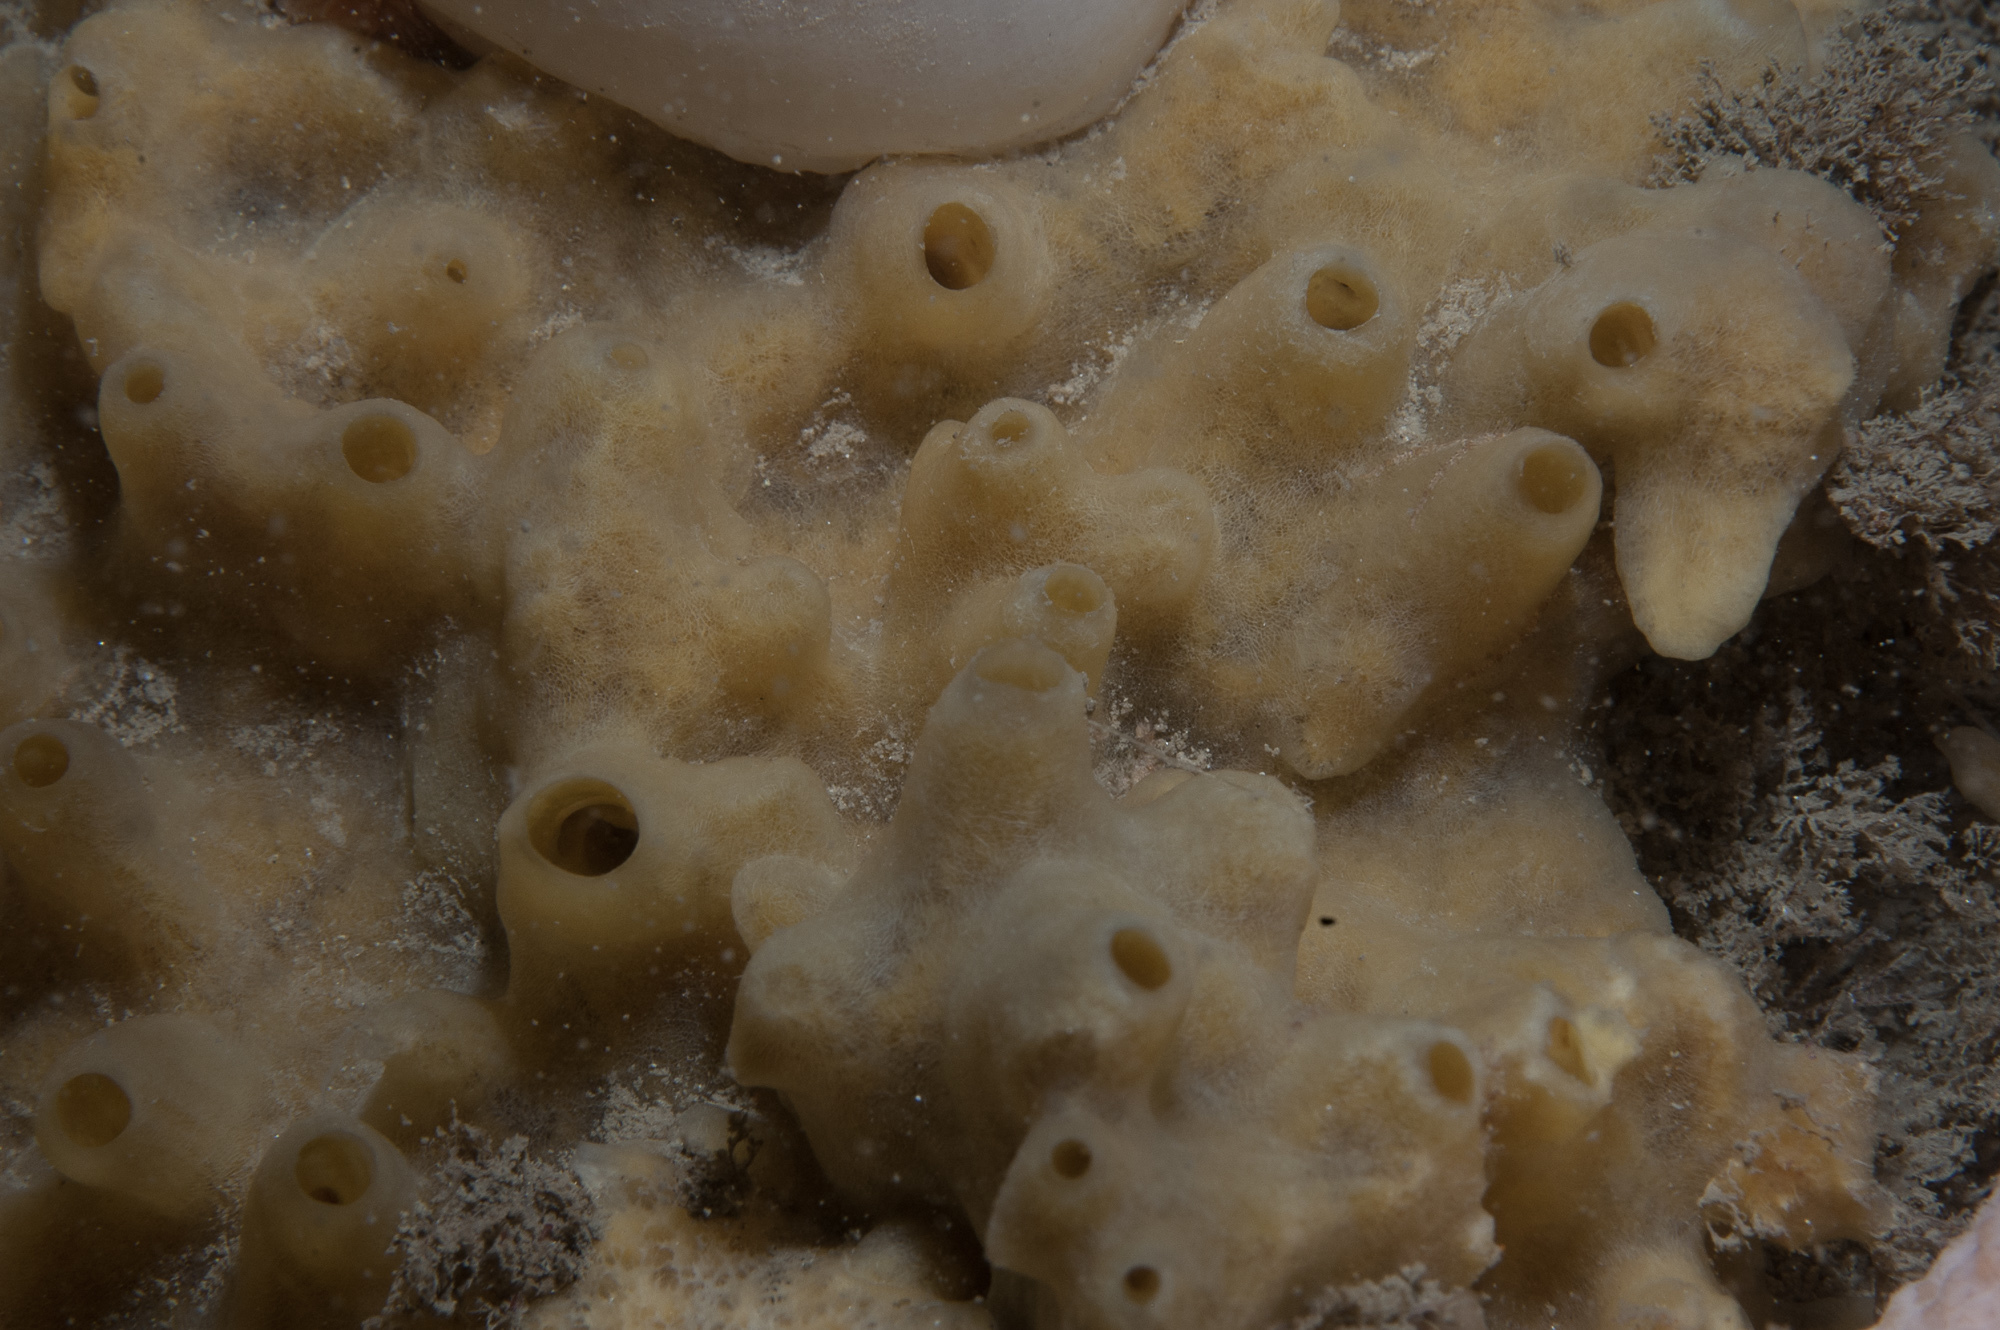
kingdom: Animalia
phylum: Porifera
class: Demospongiae
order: Suberitida
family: Halichondriidae
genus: Halichondria
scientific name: Halichondria panicea
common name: Breadcrumb sponge
